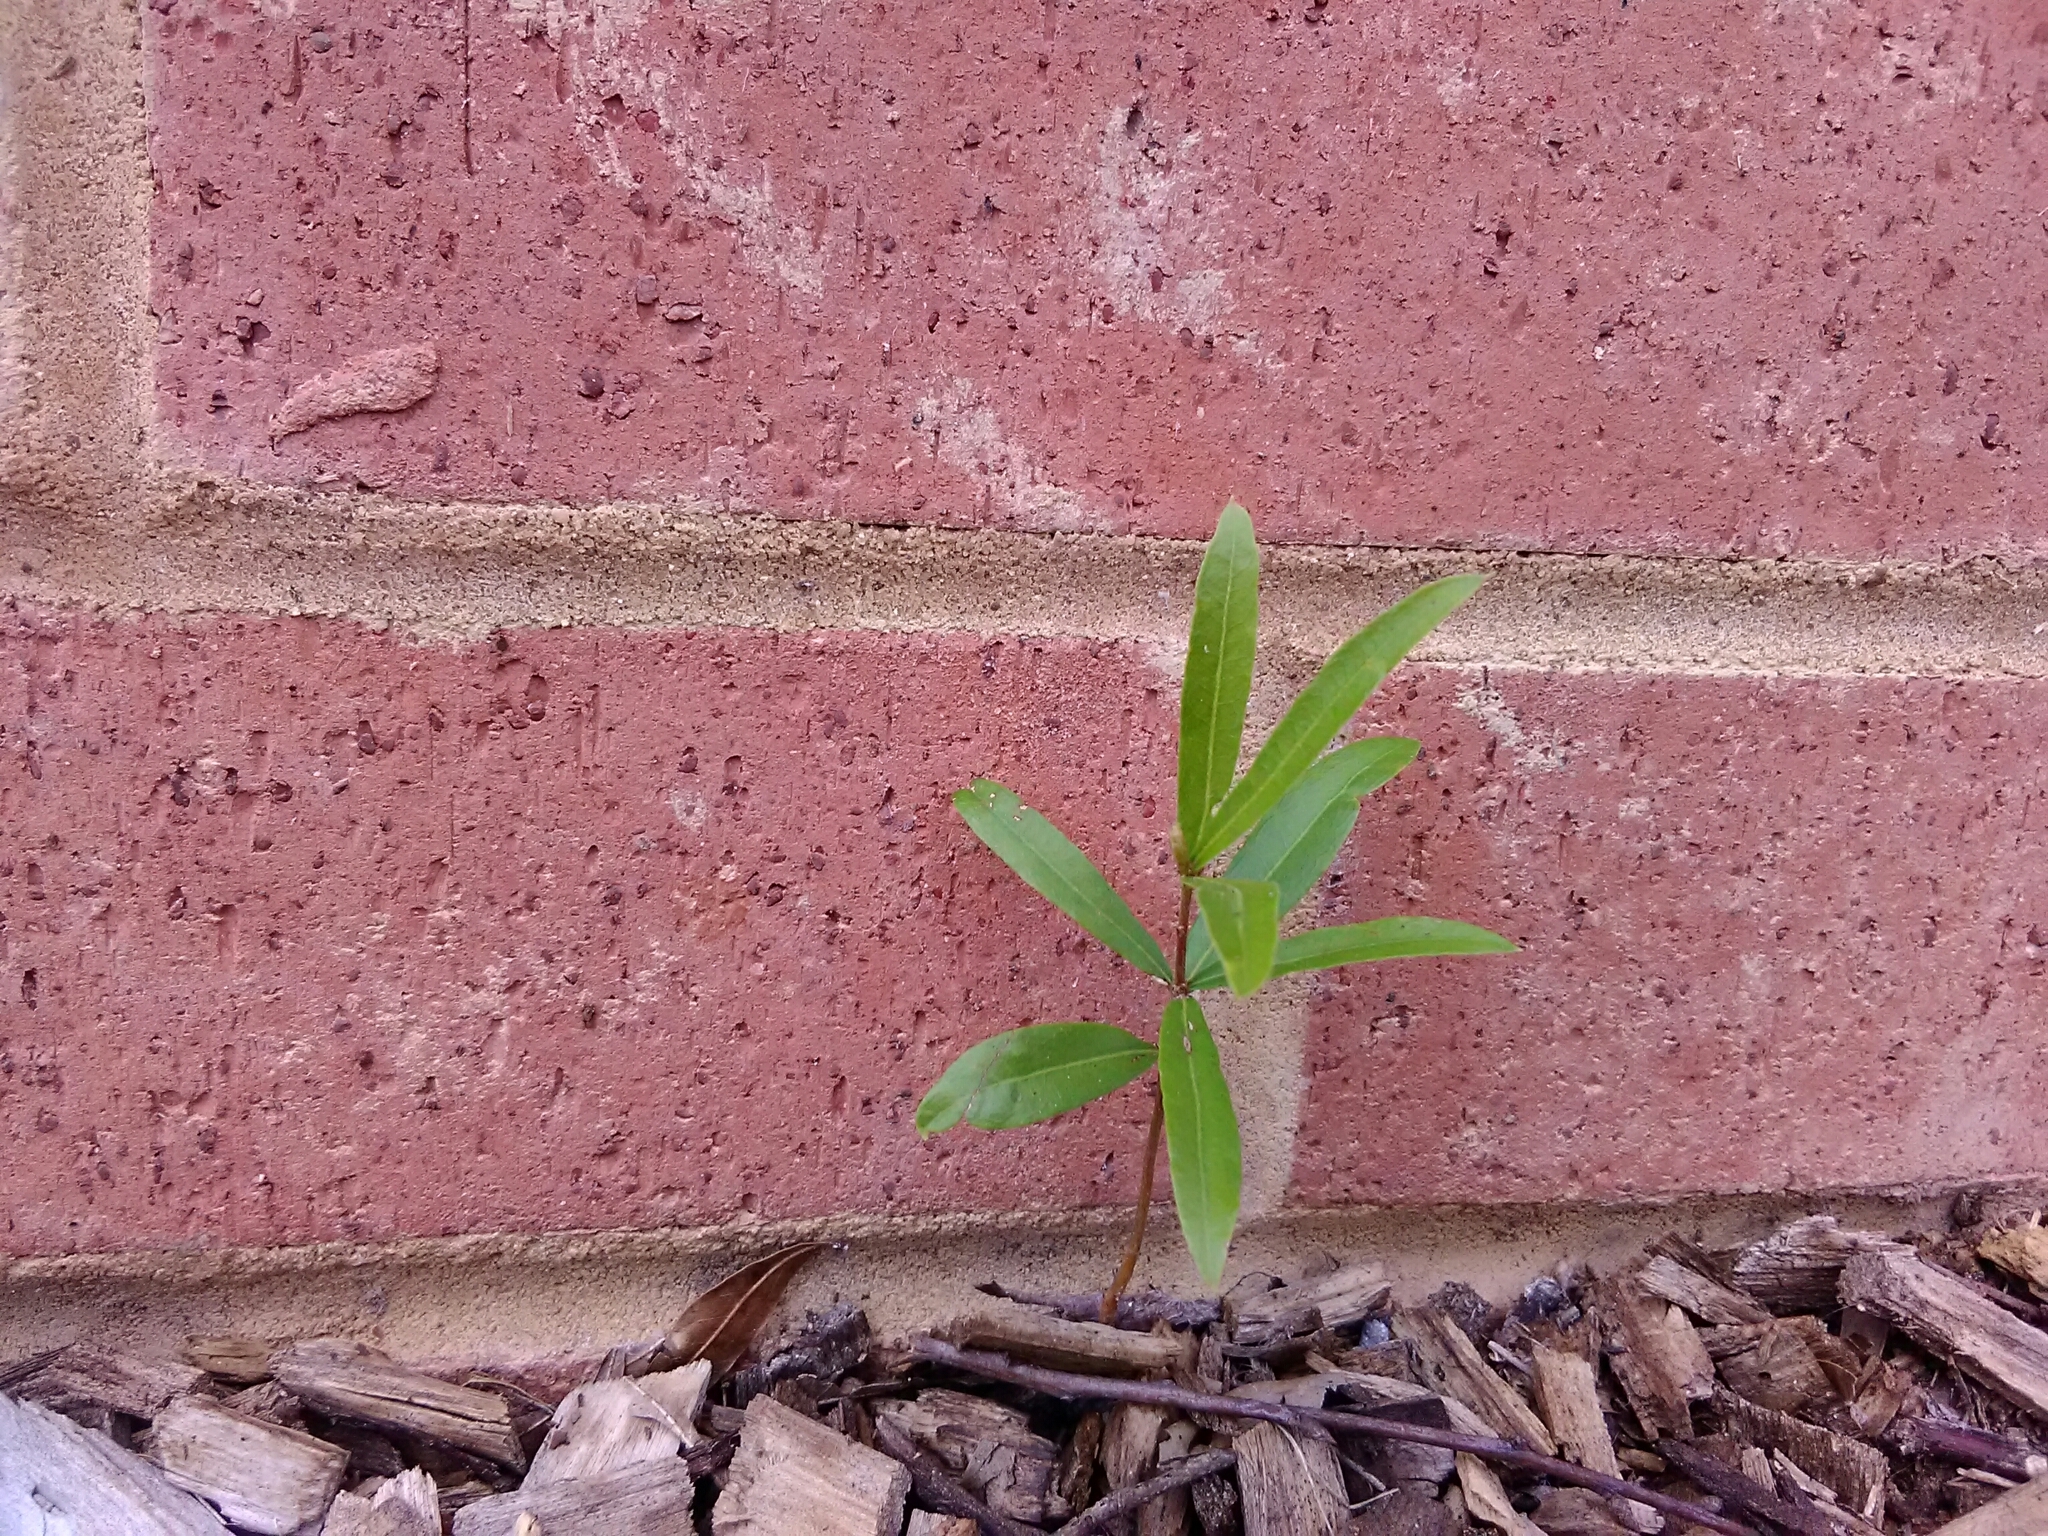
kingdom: Plantae
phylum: Tracheophyta
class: Magnoliopsida
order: Fagales
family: Fagaceae
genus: Quercus
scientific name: Quercus phellos
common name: Willow oak
